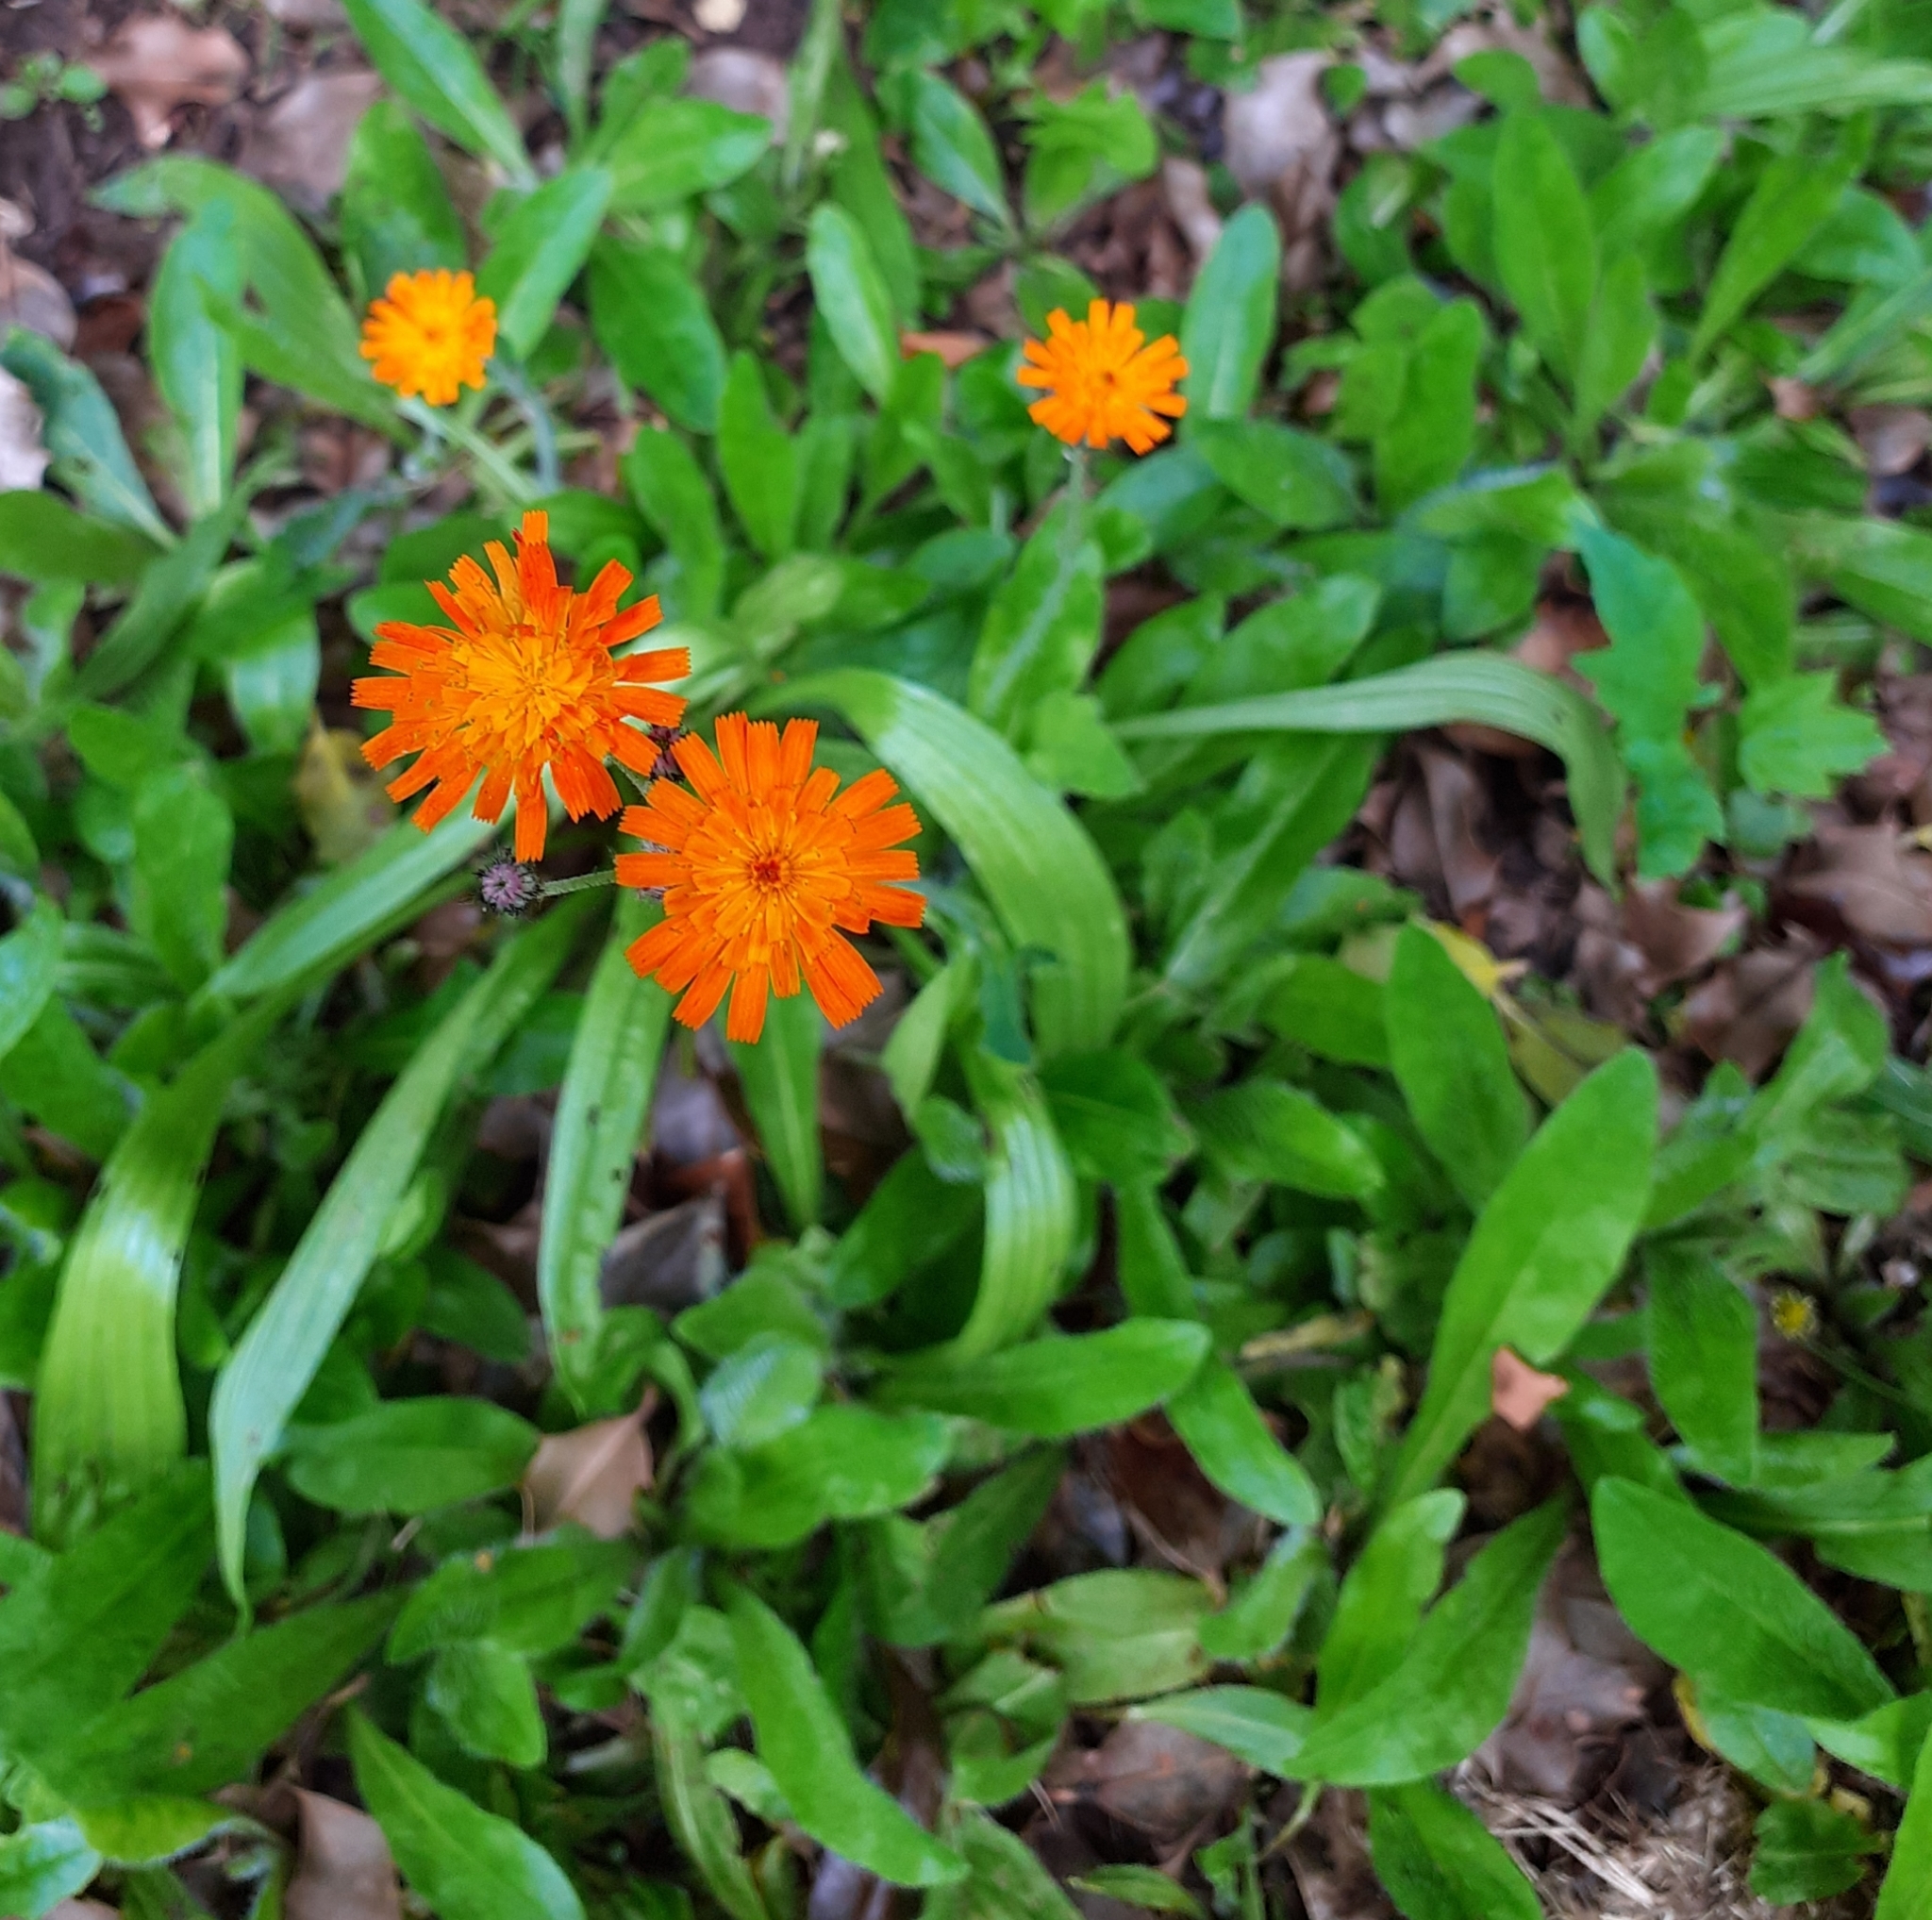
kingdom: Plantae
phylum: Tracheophyta
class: Magnoliopsida
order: Asterales
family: Asteraceae
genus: Pilosella
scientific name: Pilosella aurantiaca
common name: Fox-and-cubs
